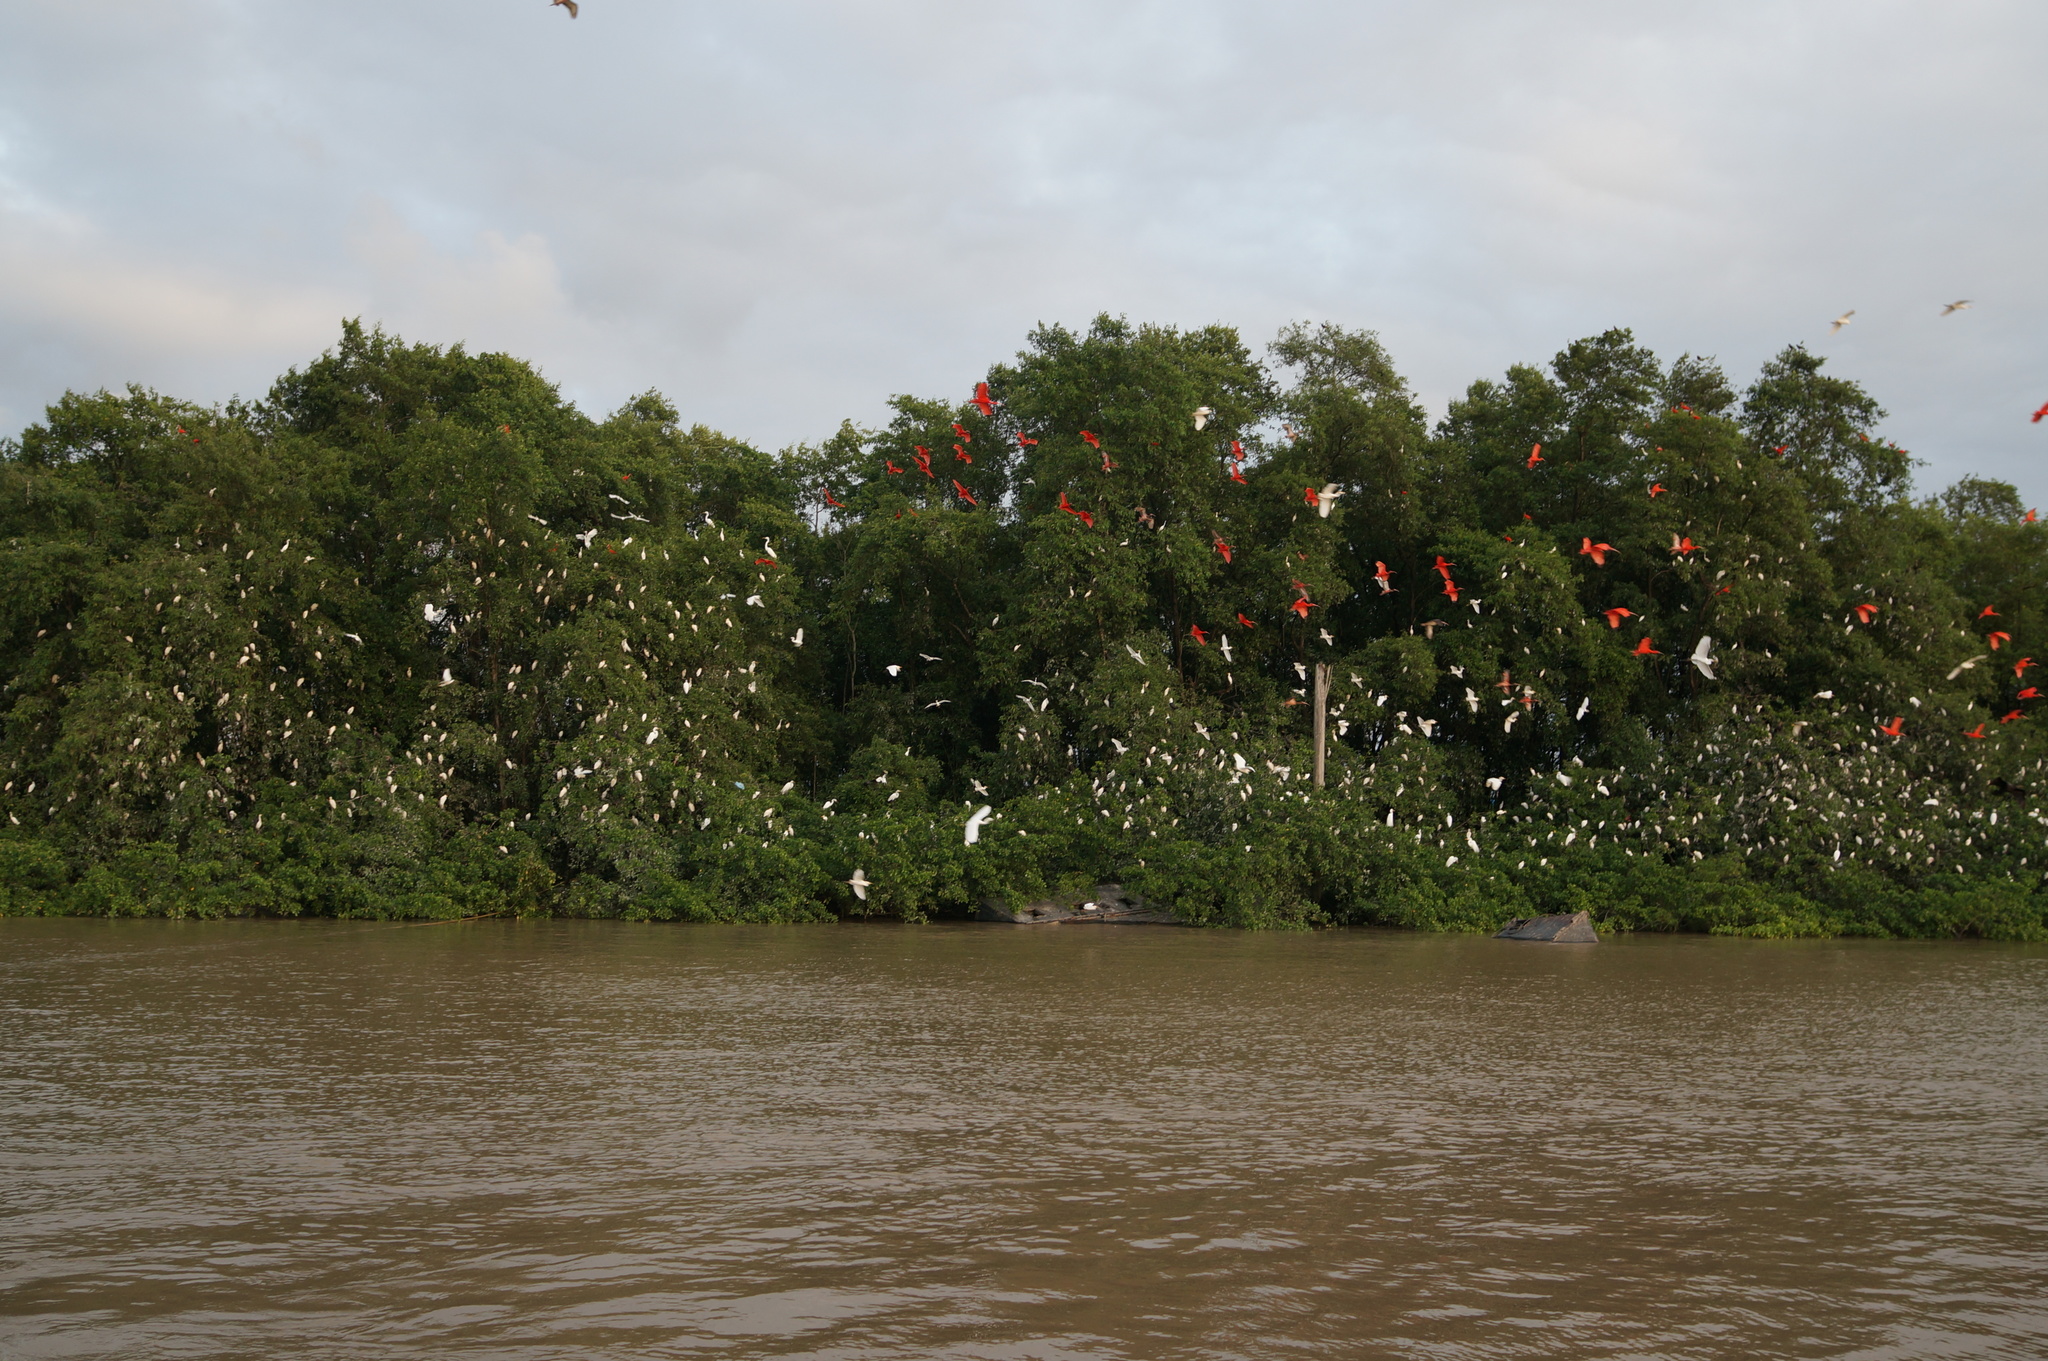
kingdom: Animalia
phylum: Chordata
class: Aves
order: Pelecaniformes
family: Threskiornithidae
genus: Eudocimus
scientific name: Eudocimus ruber
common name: Scarlet ibis
